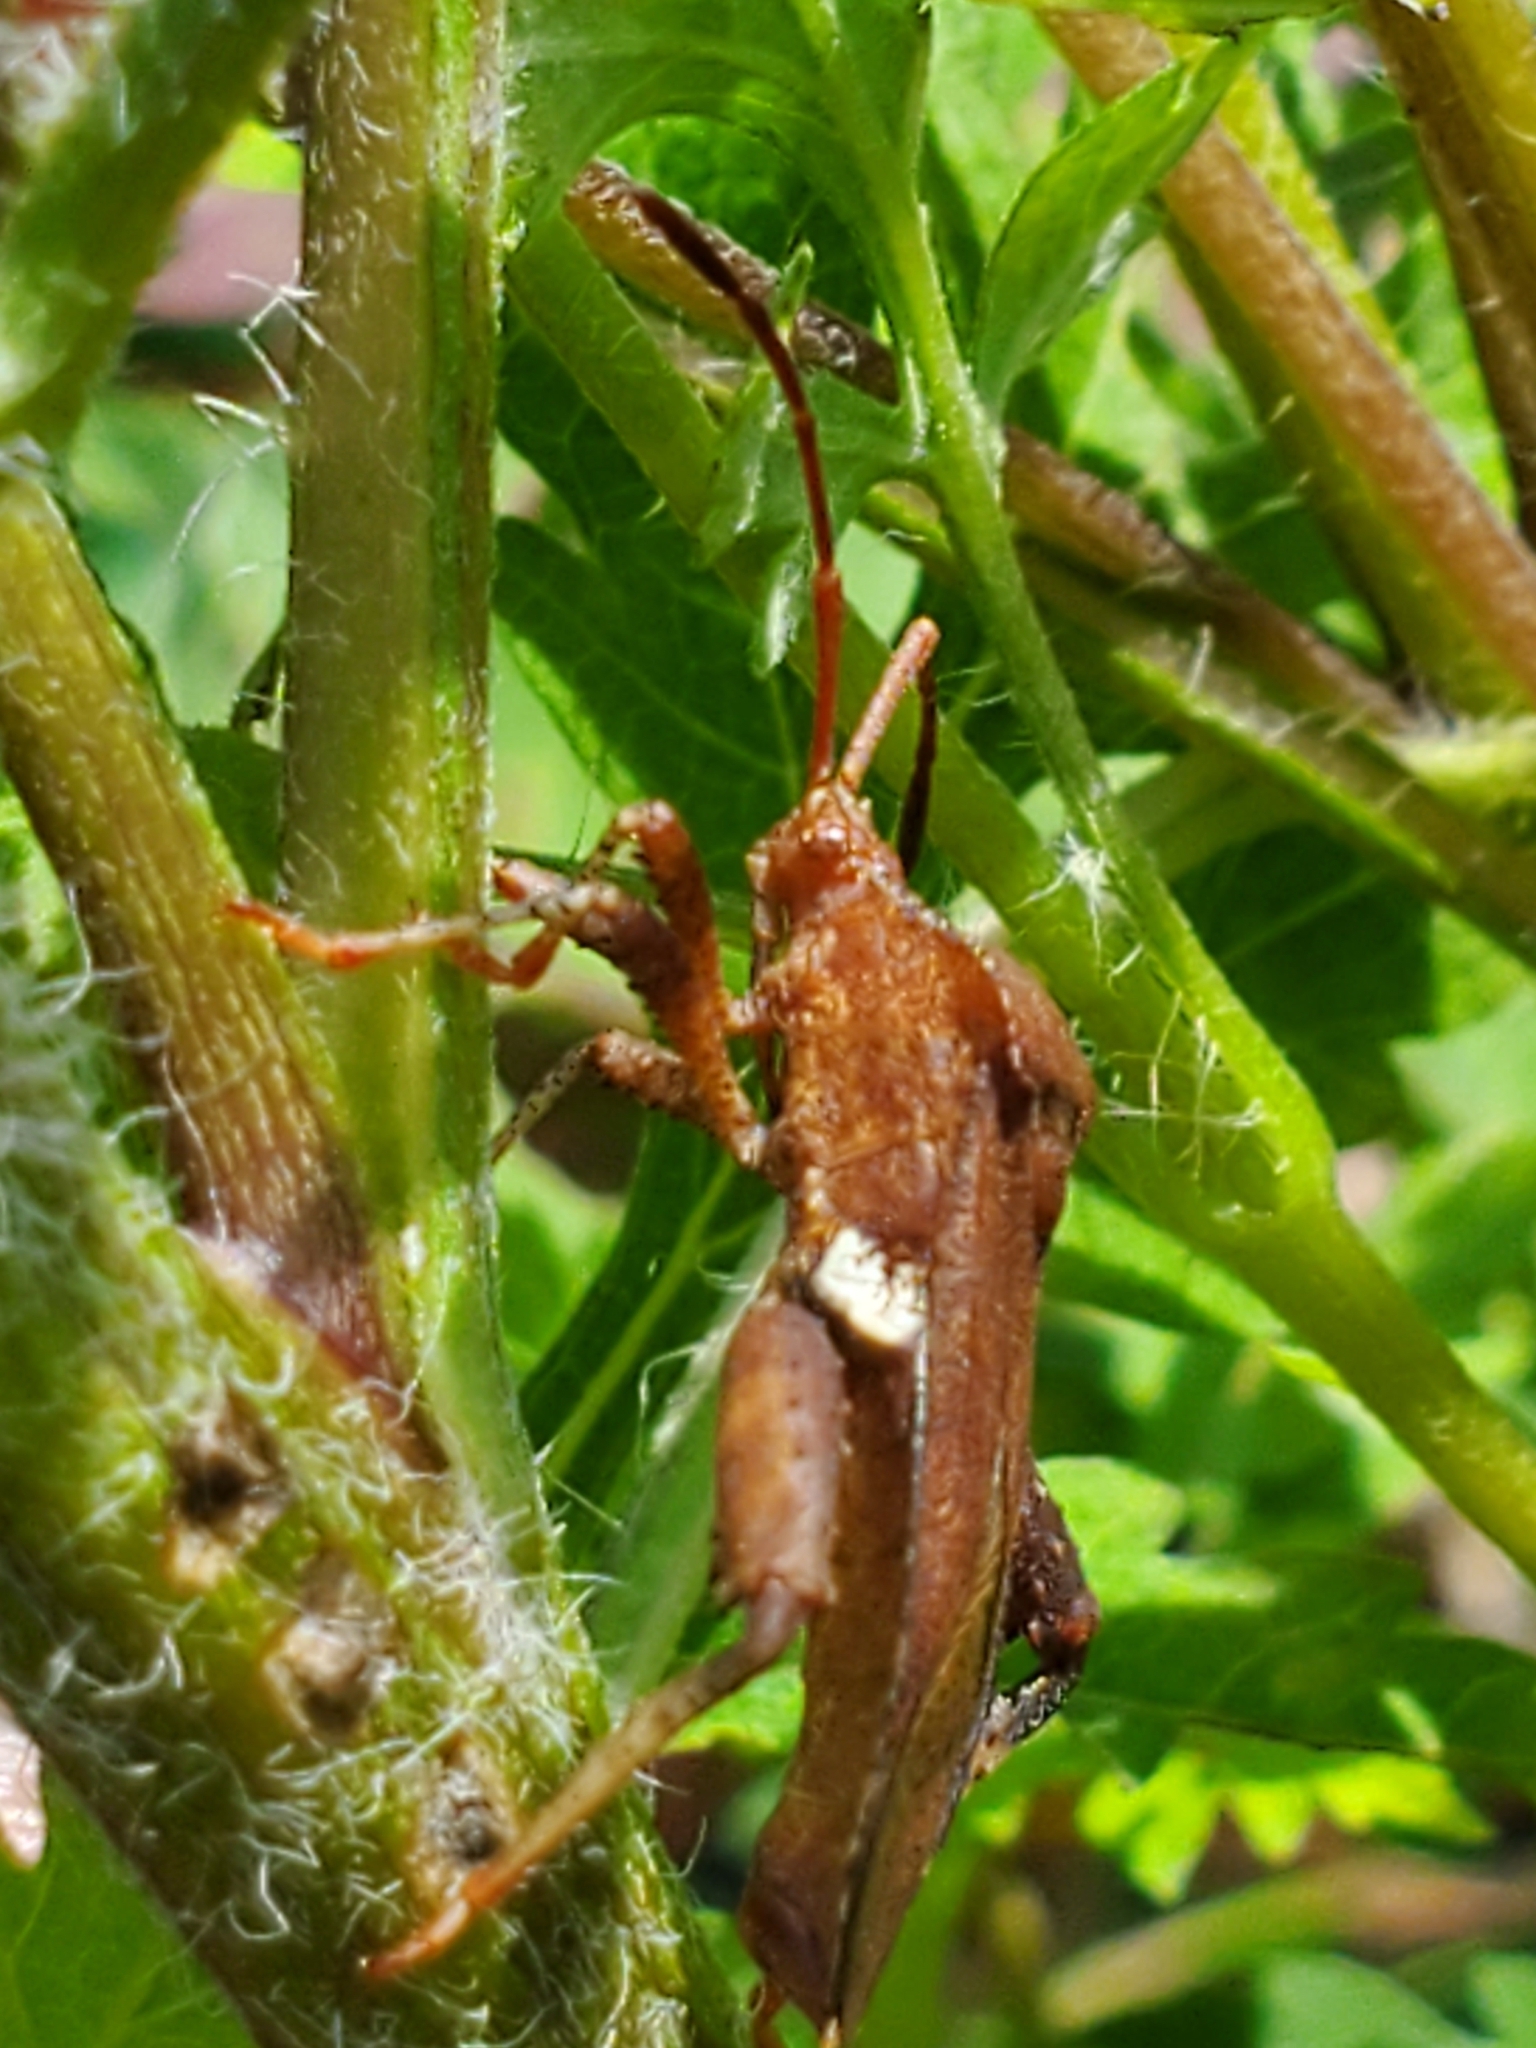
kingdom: Animalia
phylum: Arthropoda
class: Insecta
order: Hemiptera
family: Coreidae
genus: Euthochtha
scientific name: Euthochtha galeator
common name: Helmeted squash bug
